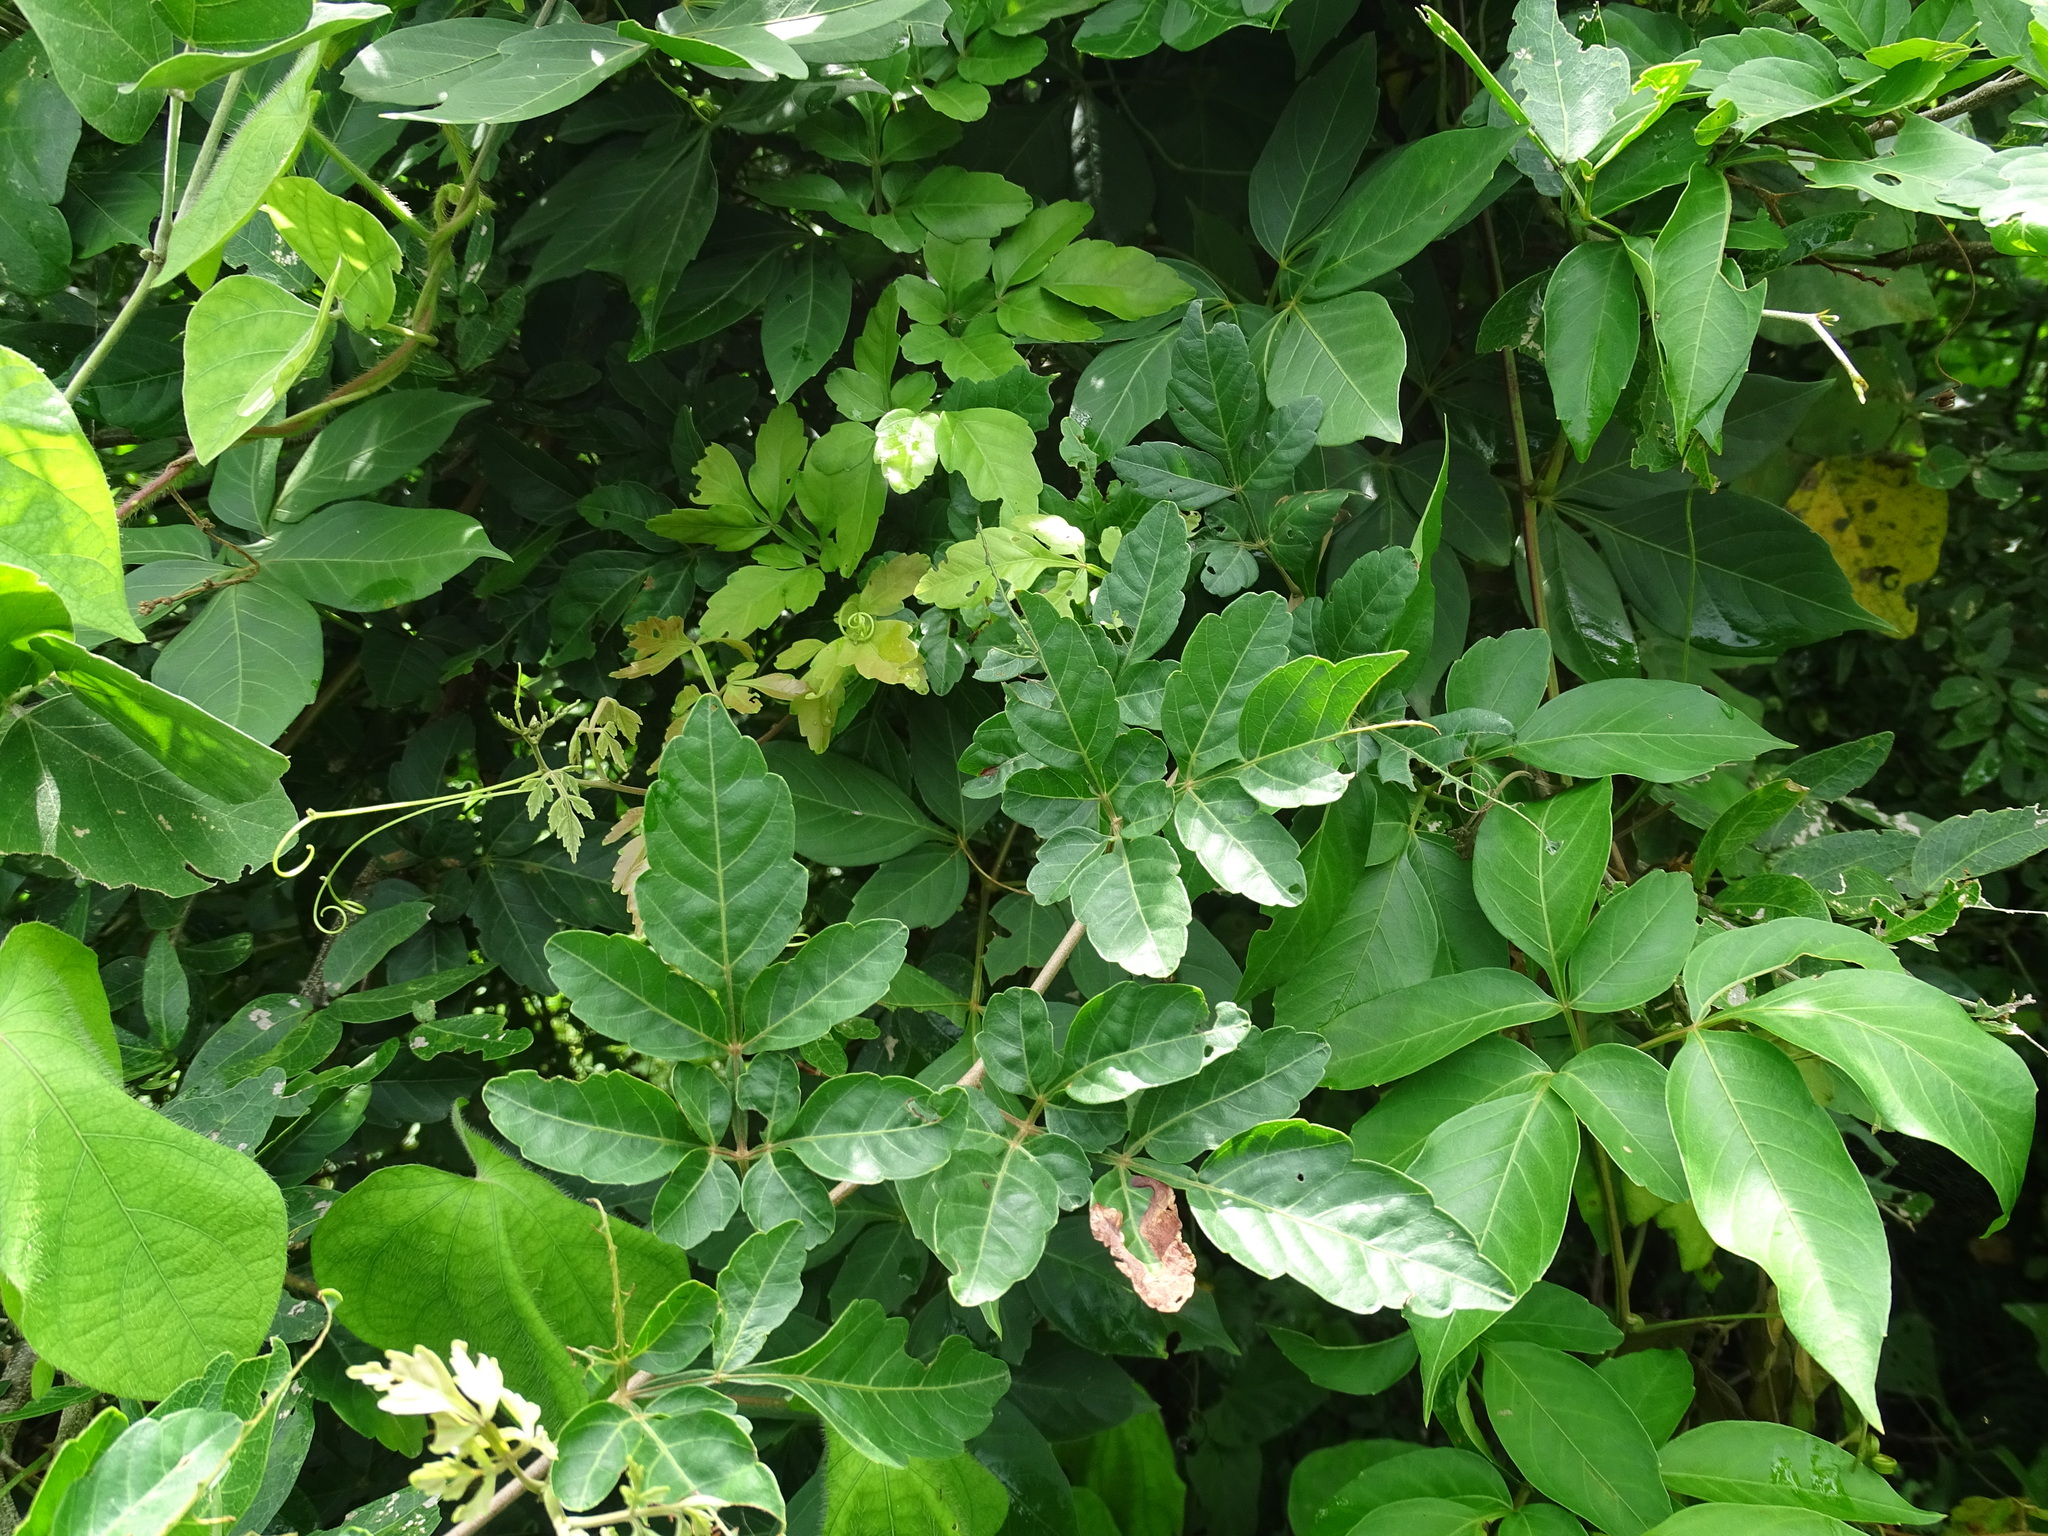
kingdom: Plantae
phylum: Tracheophyta
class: Magnoliopsida
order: Sapindales
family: Sapindaceae
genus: Serjania
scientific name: Serjania triquetra
